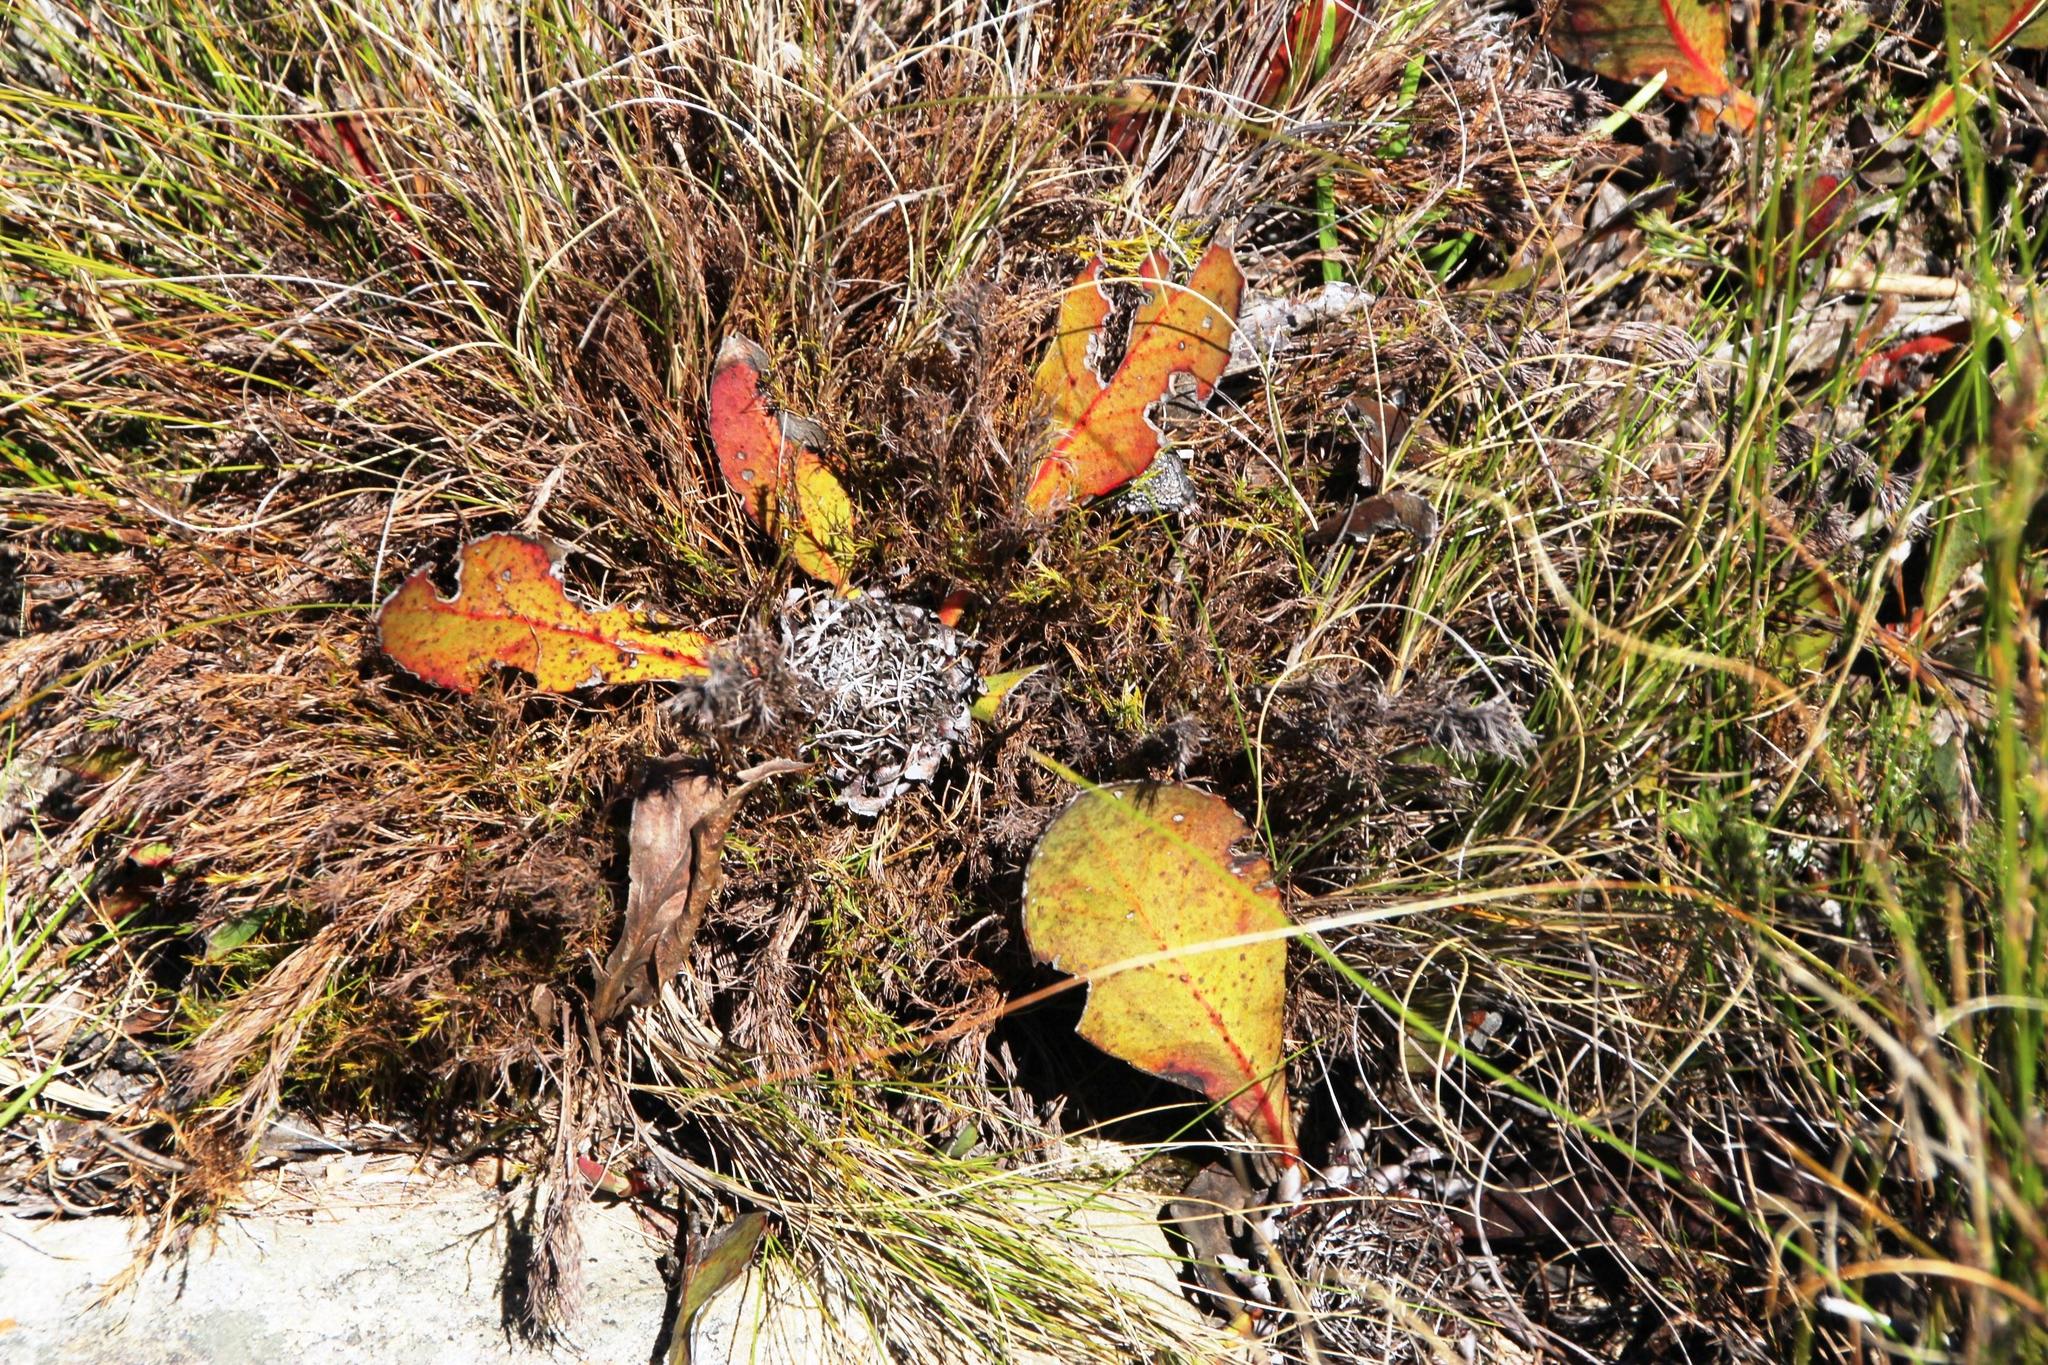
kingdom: Plantae
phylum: Tracheophyta
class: Magnoliopsida
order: Proteales
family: Proteaceae
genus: Protea
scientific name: Protea acaulos
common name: Common ground sugarbush
